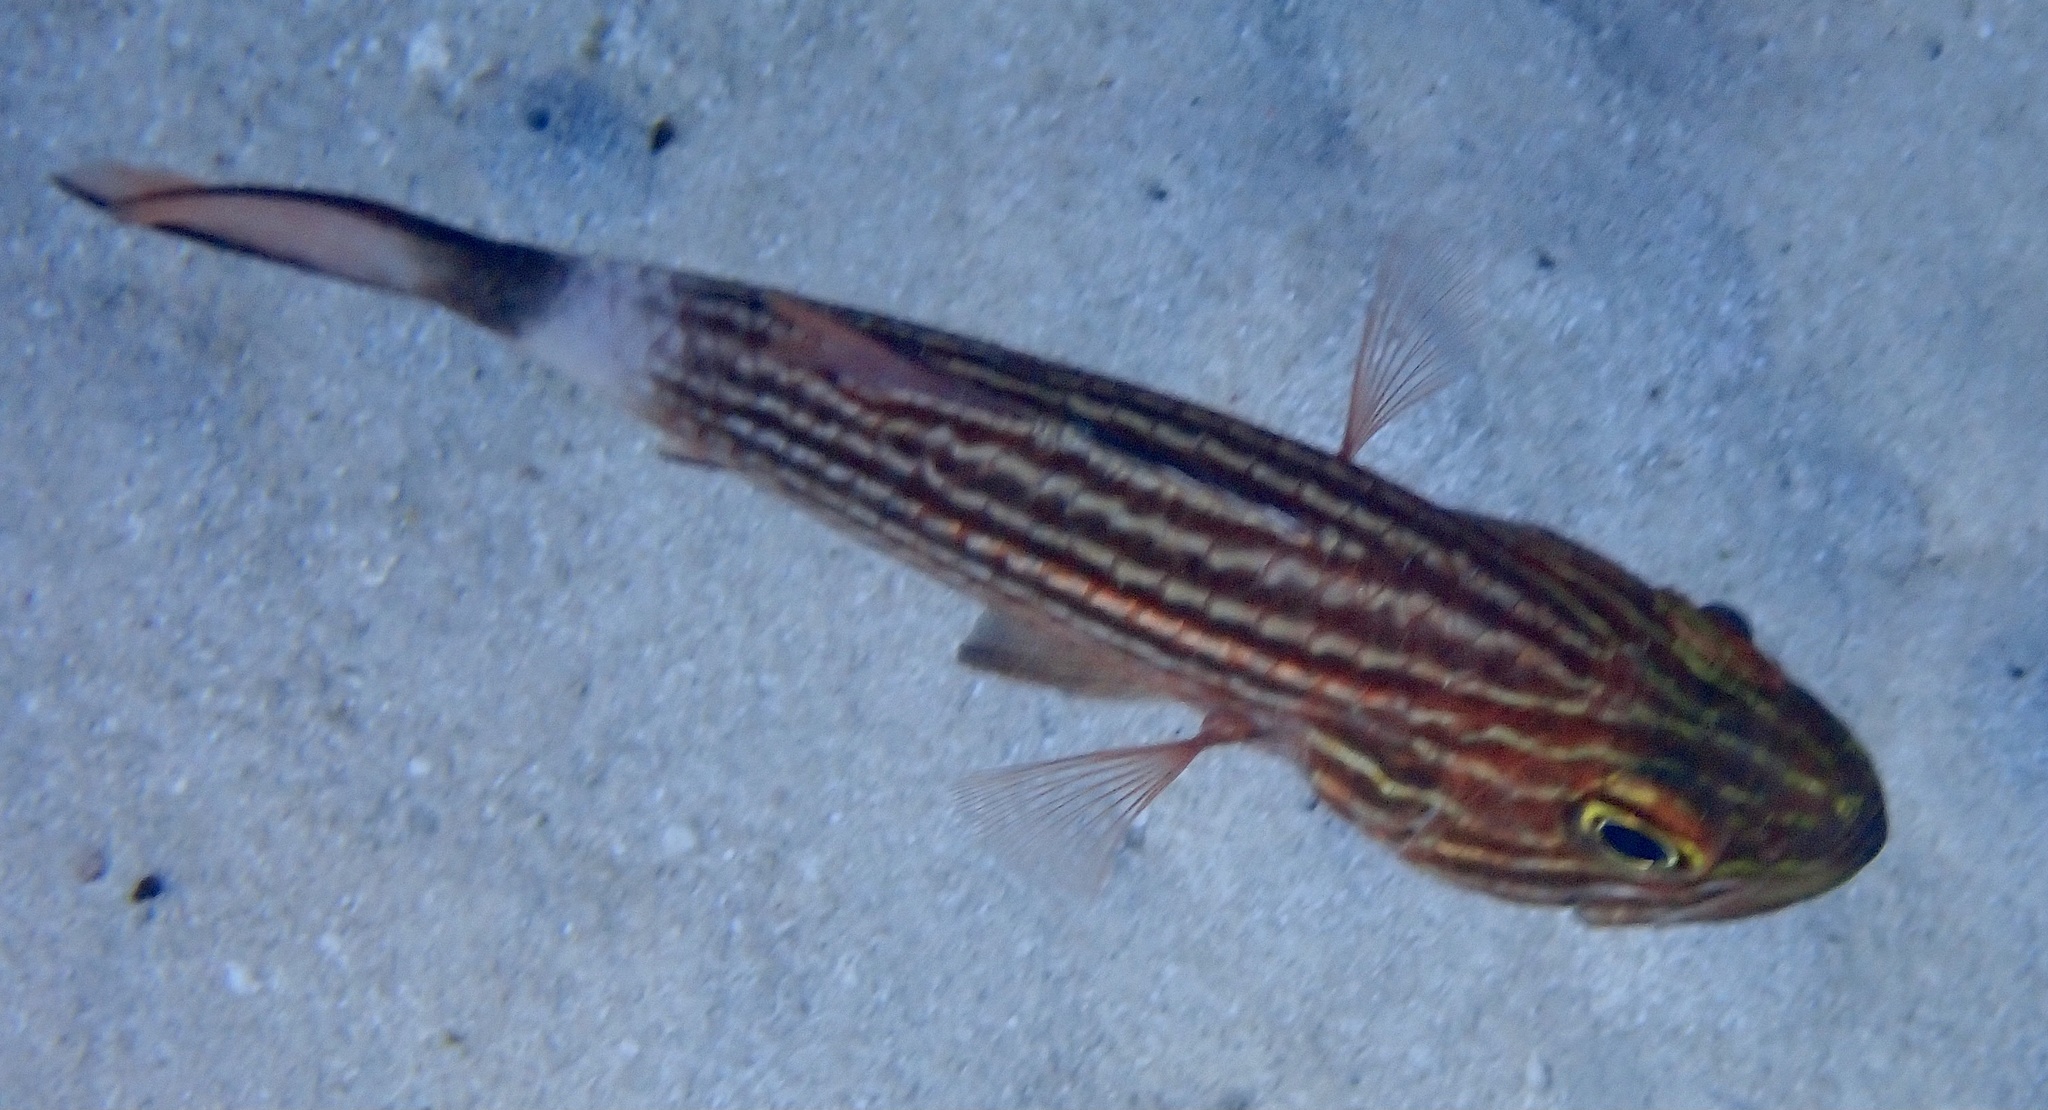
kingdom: Animalia
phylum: Chordata
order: Perciformes
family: Apogonidae
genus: Cheilodipterus
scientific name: Cheilodipterus macrodon
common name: Eight-lined cardinalfish
